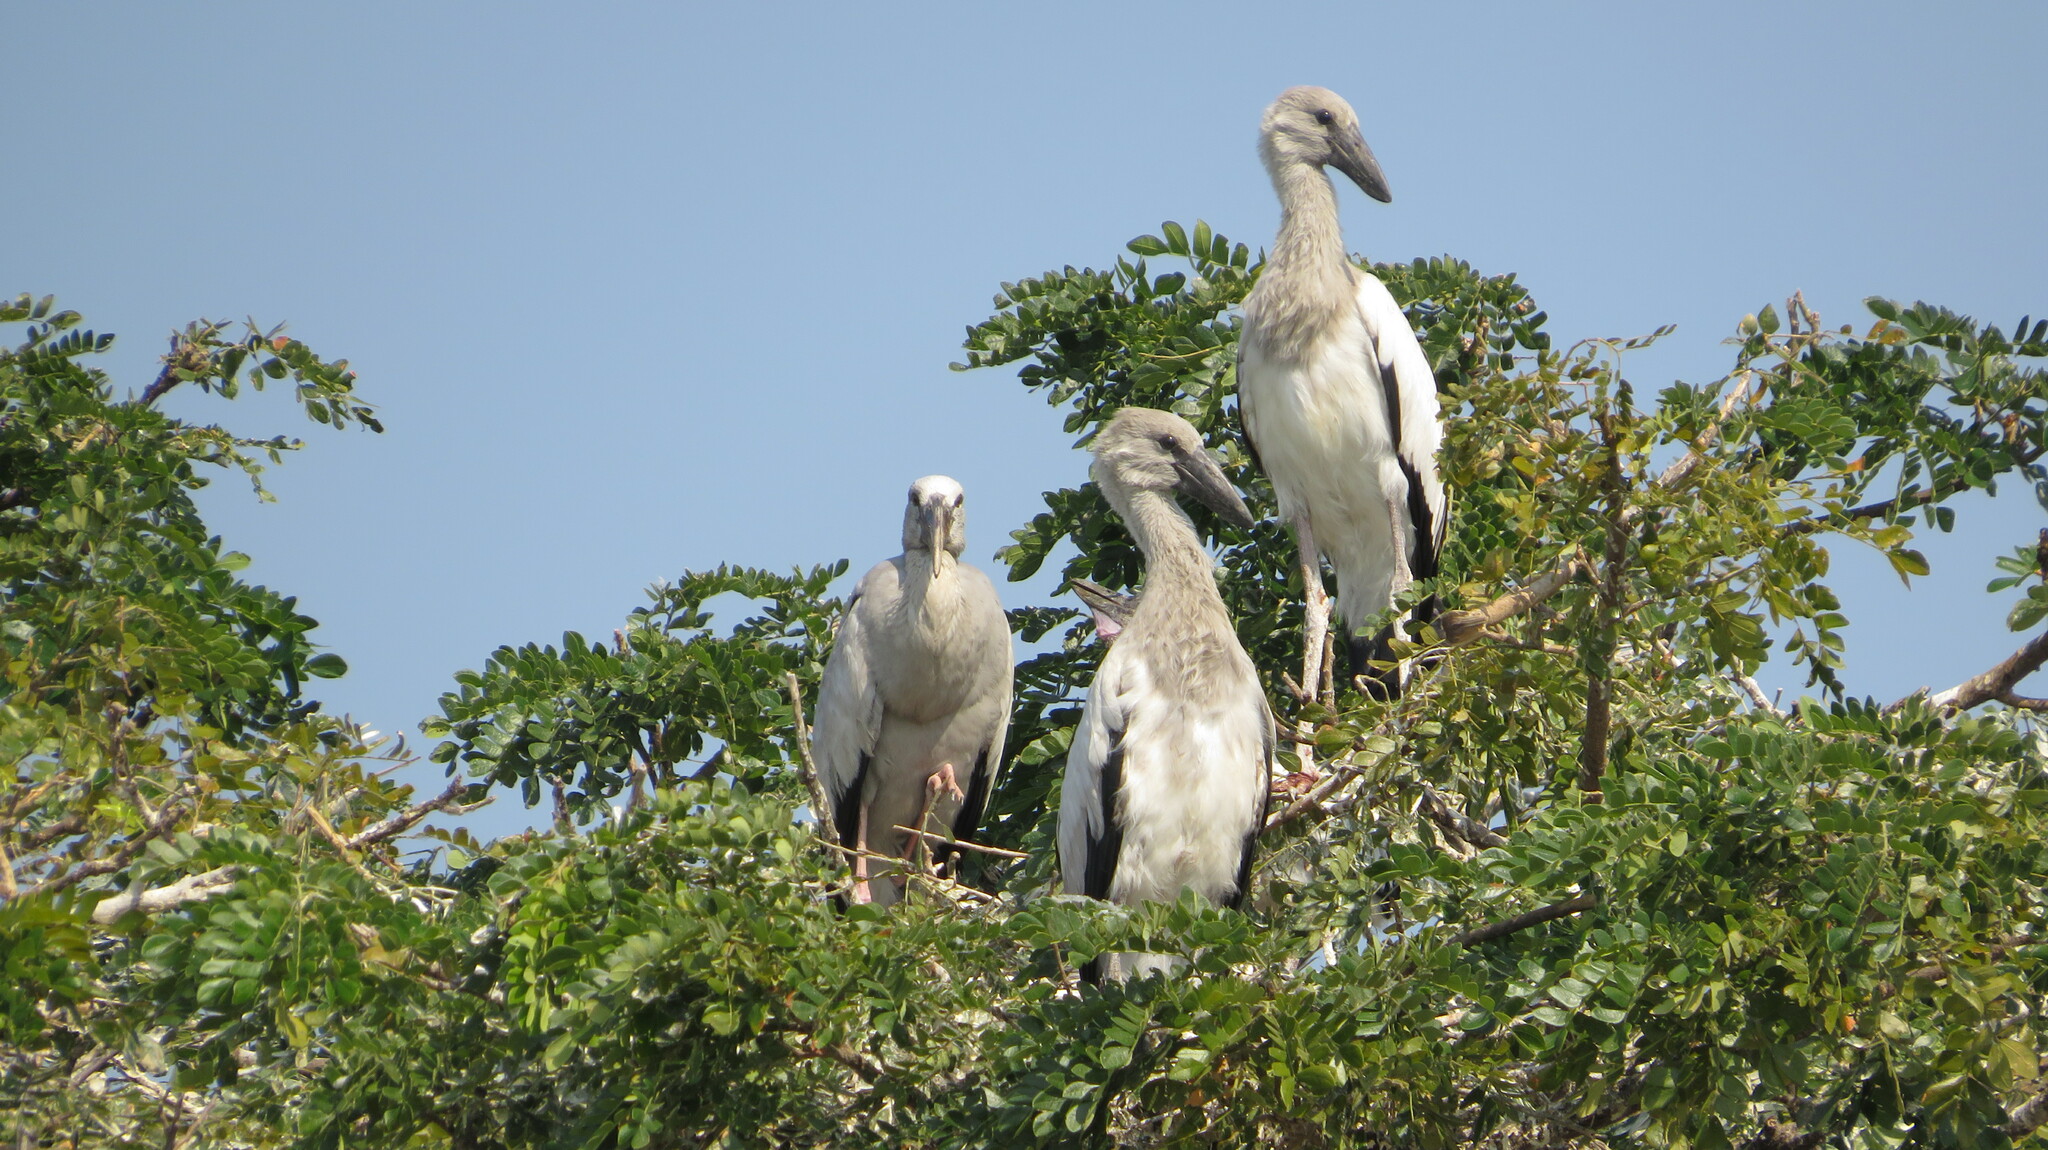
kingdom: Animalia
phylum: Chordata
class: Aves
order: Ciconiiformes
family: Ciconiidae
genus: Anastomus
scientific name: Anastomus oscitans
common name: Asian openbill
